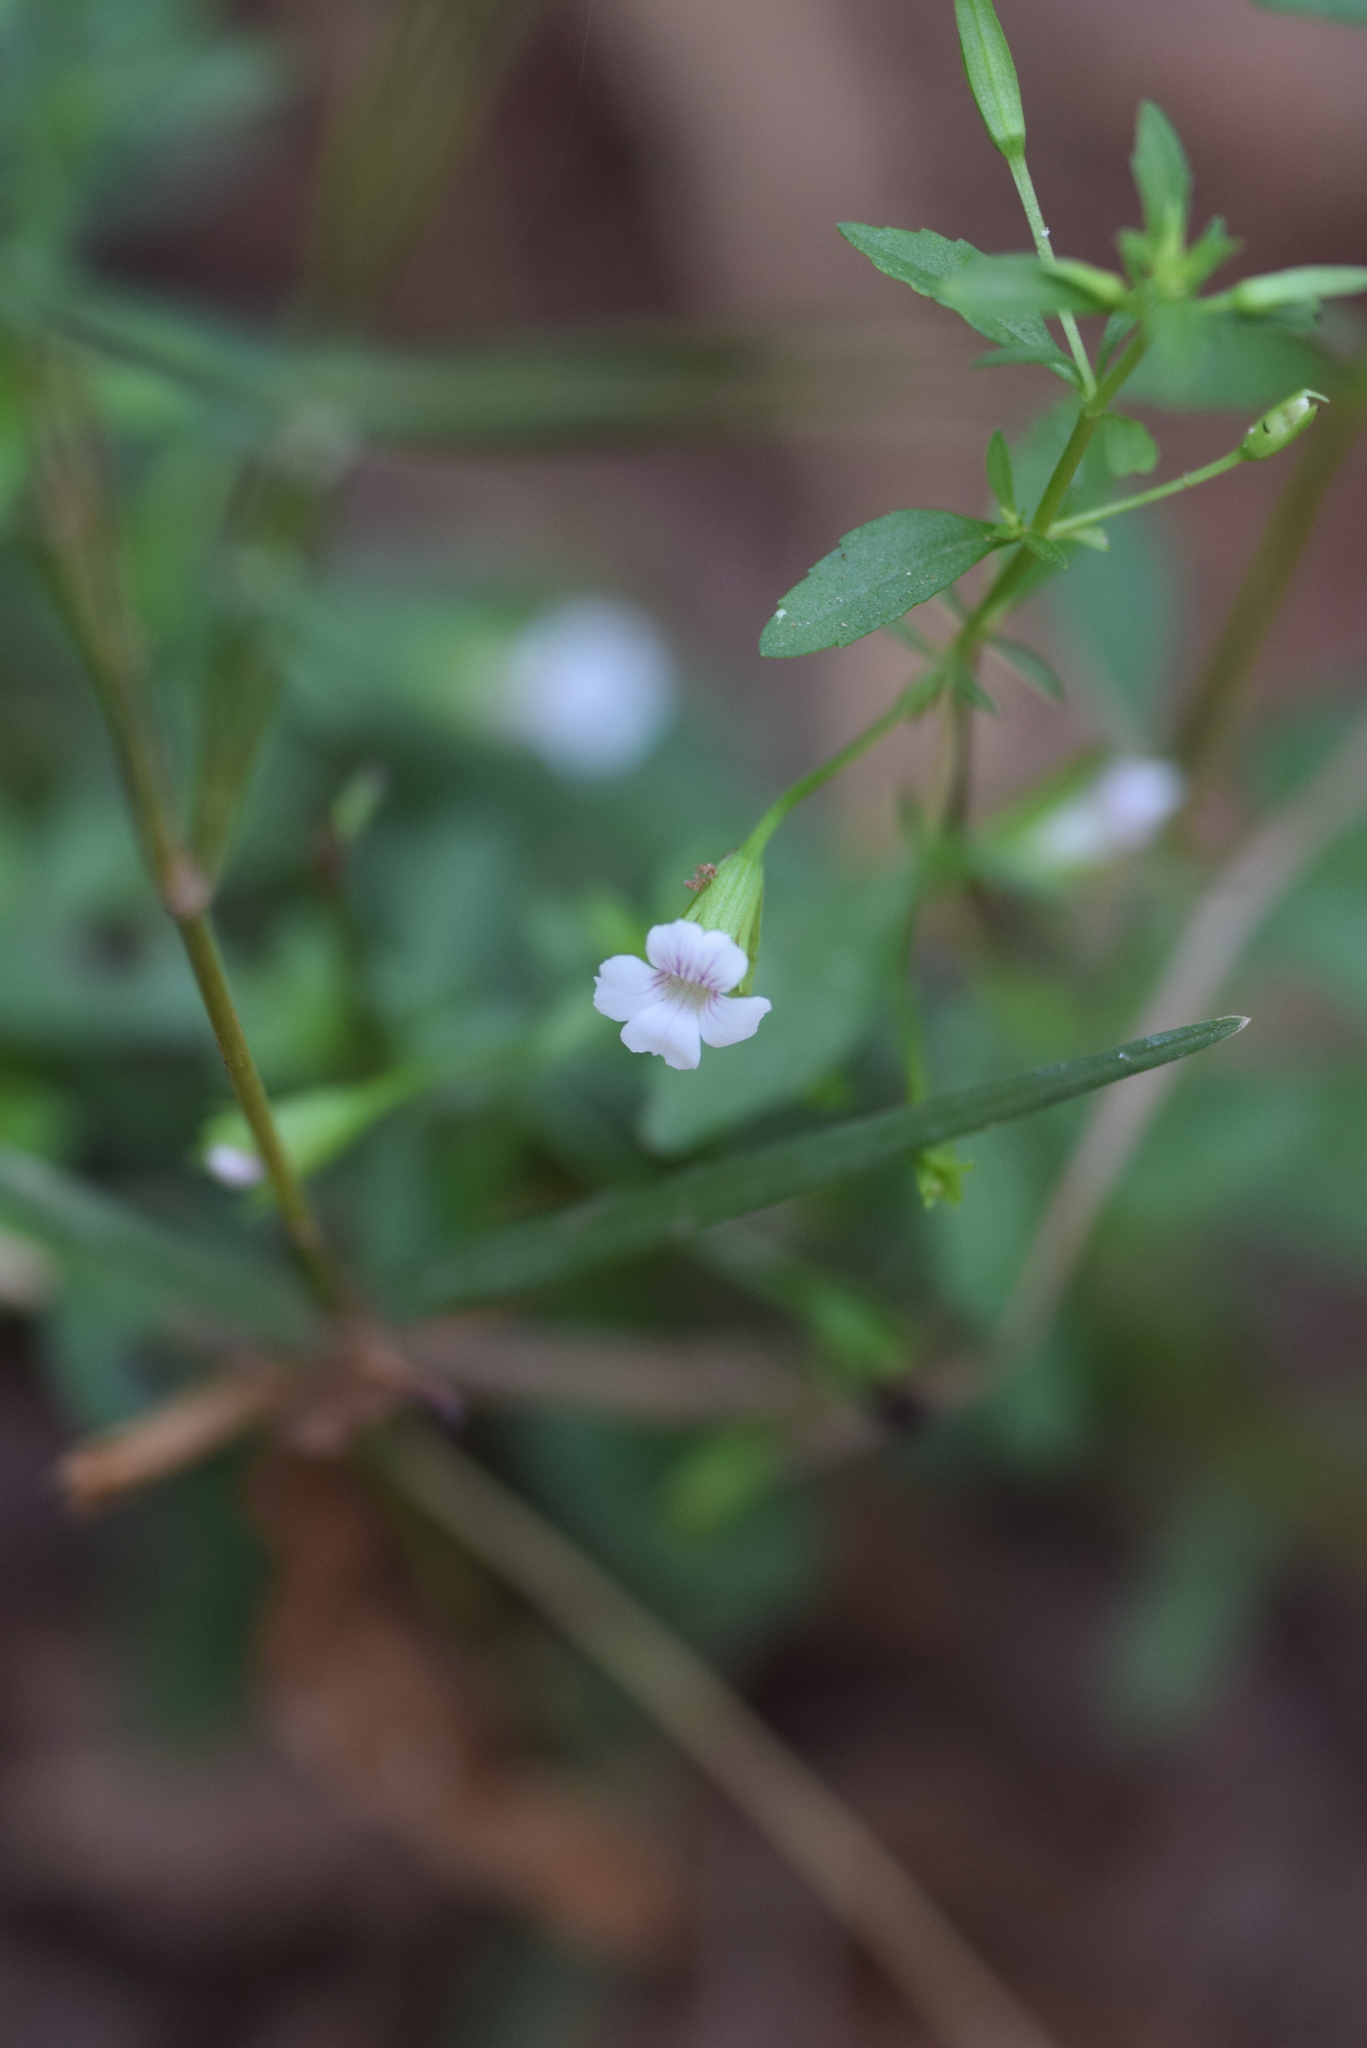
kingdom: Plantae
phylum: Tracheophyta
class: Magnoliopsida
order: Lamiales
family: Plantaginaceae
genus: Mecardonia
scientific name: Mecardonia acuminata
